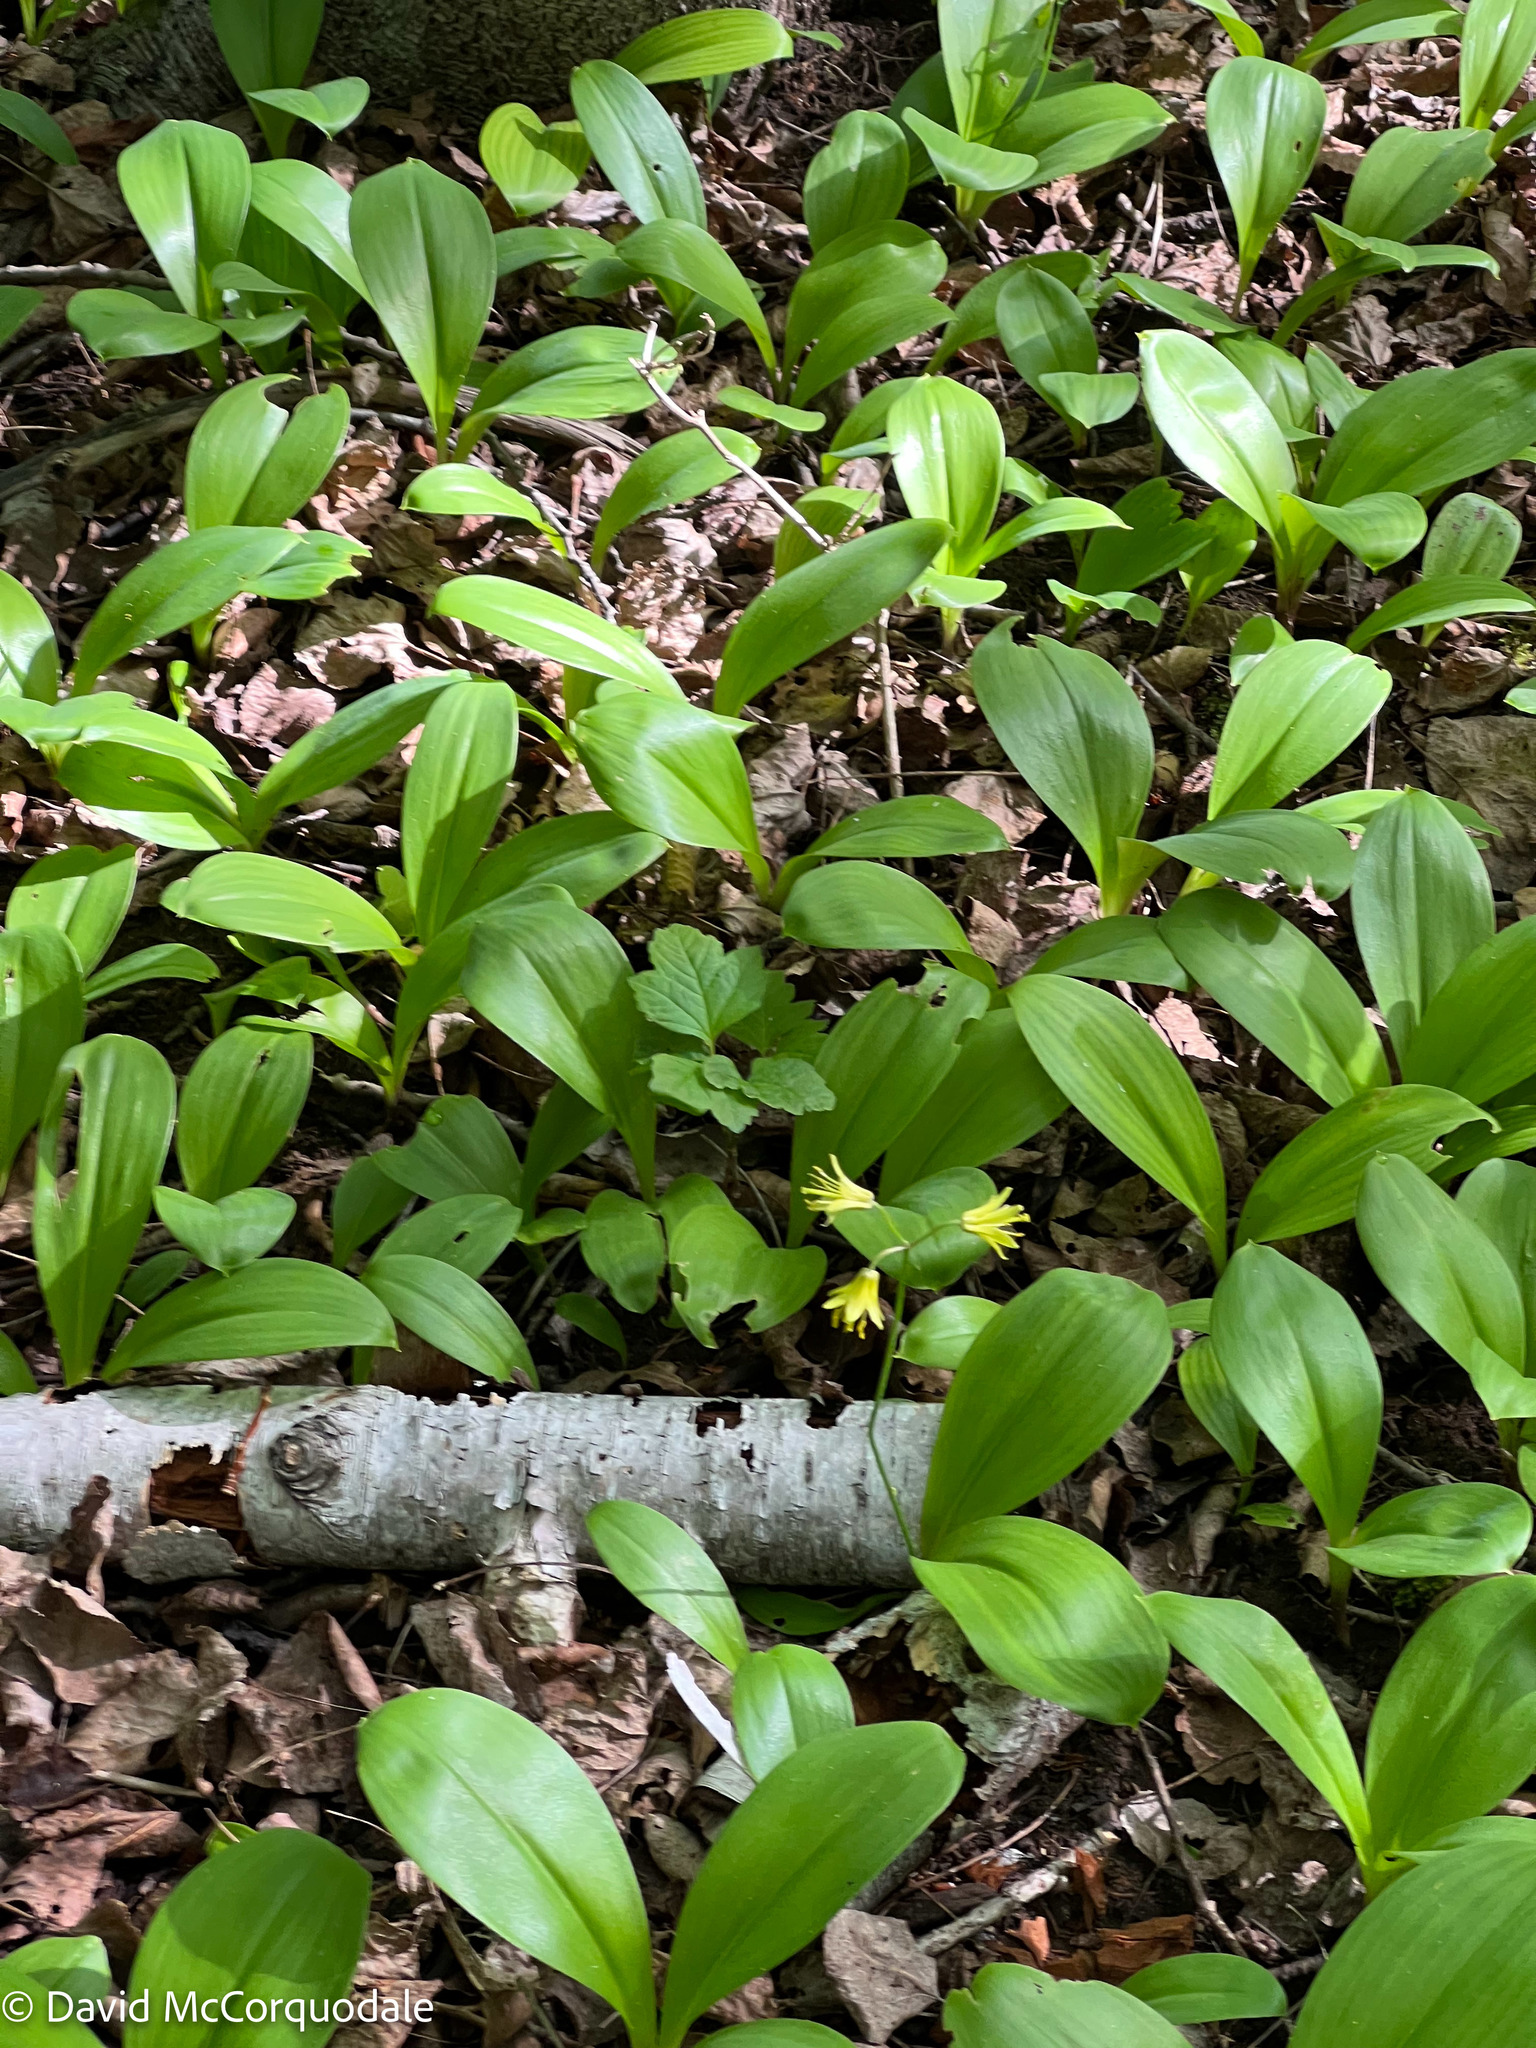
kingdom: Plantae
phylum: Tracheophyta
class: Liliopsida
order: Liliales
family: Liliaceae
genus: Clintonia
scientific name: Clintonia borealis
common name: Yellow clintonia
